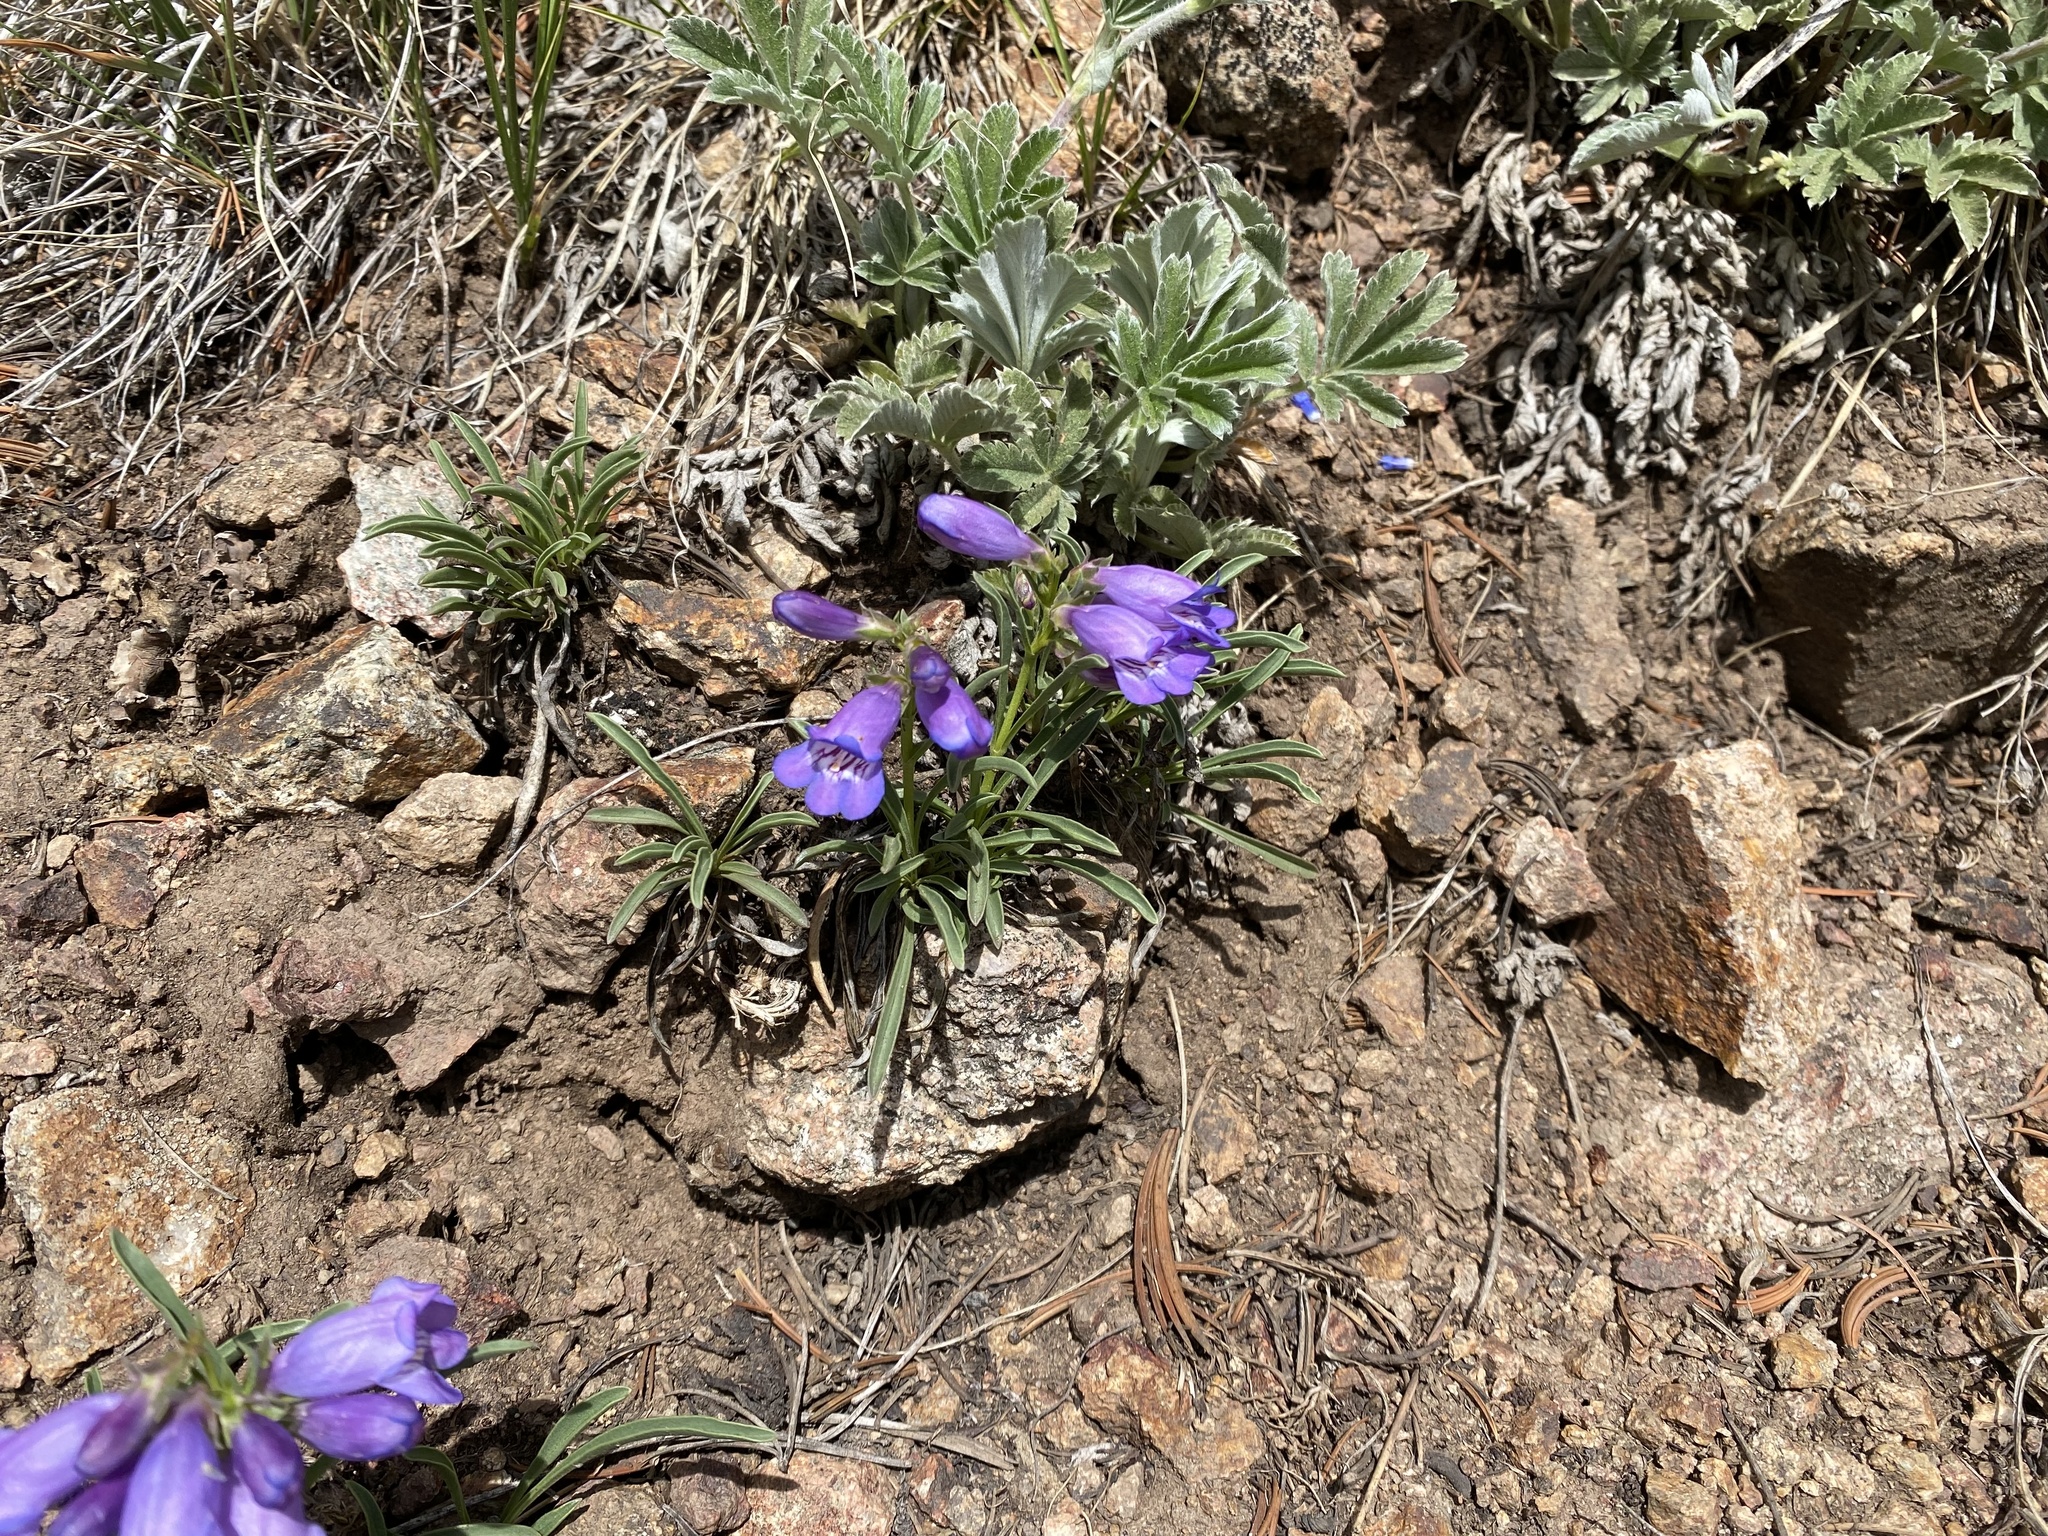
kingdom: Plantae
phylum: Tracheophyta
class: Magnoliopsida
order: Lamiales
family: Plantaginaceae
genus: Penstemon
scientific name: Penstemon hallii
